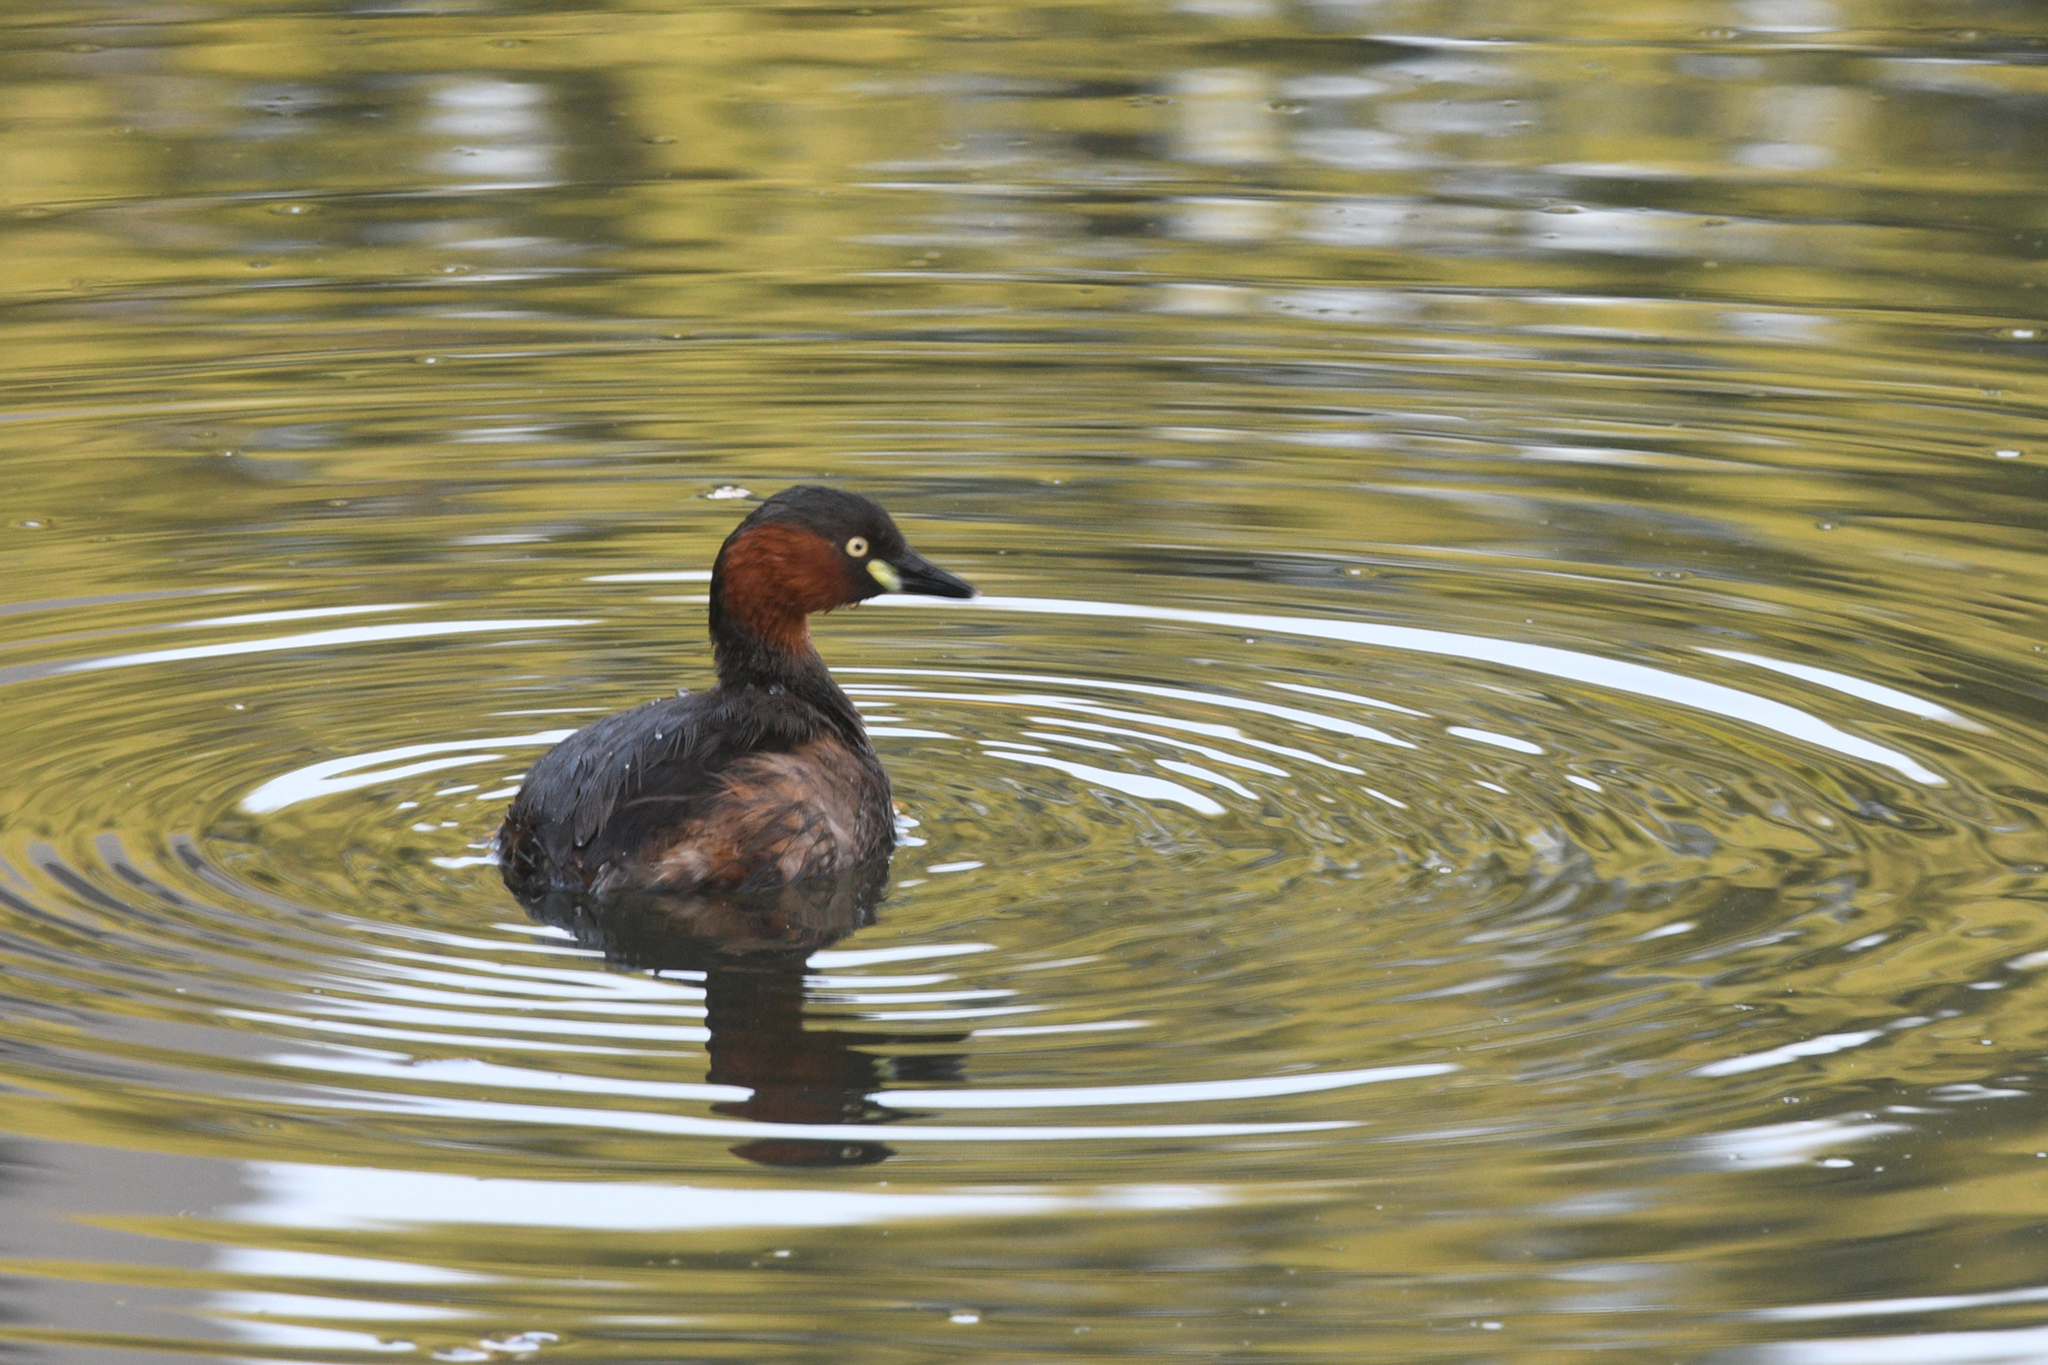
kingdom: Animalia
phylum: Chordata
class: Aves
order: Podicipediformes
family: Podicipedidae
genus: Tachybaptus
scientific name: Tachybaptus ruficollis
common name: Little grebe
